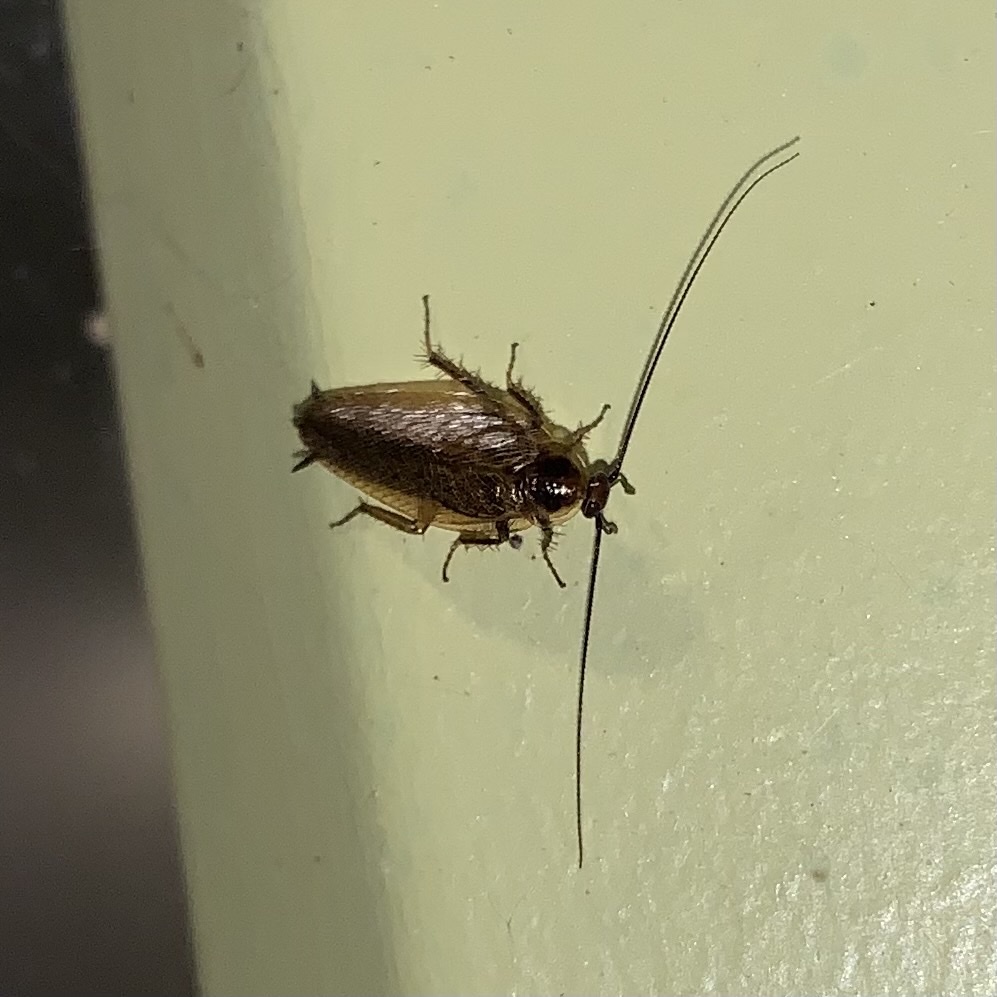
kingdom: Animalia
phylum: Arthropoda
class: Insecta
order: Blattodea
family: Ectobiidae
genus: Ectobius
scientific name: Ectobius lapponicus
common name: Dusky cockroach
